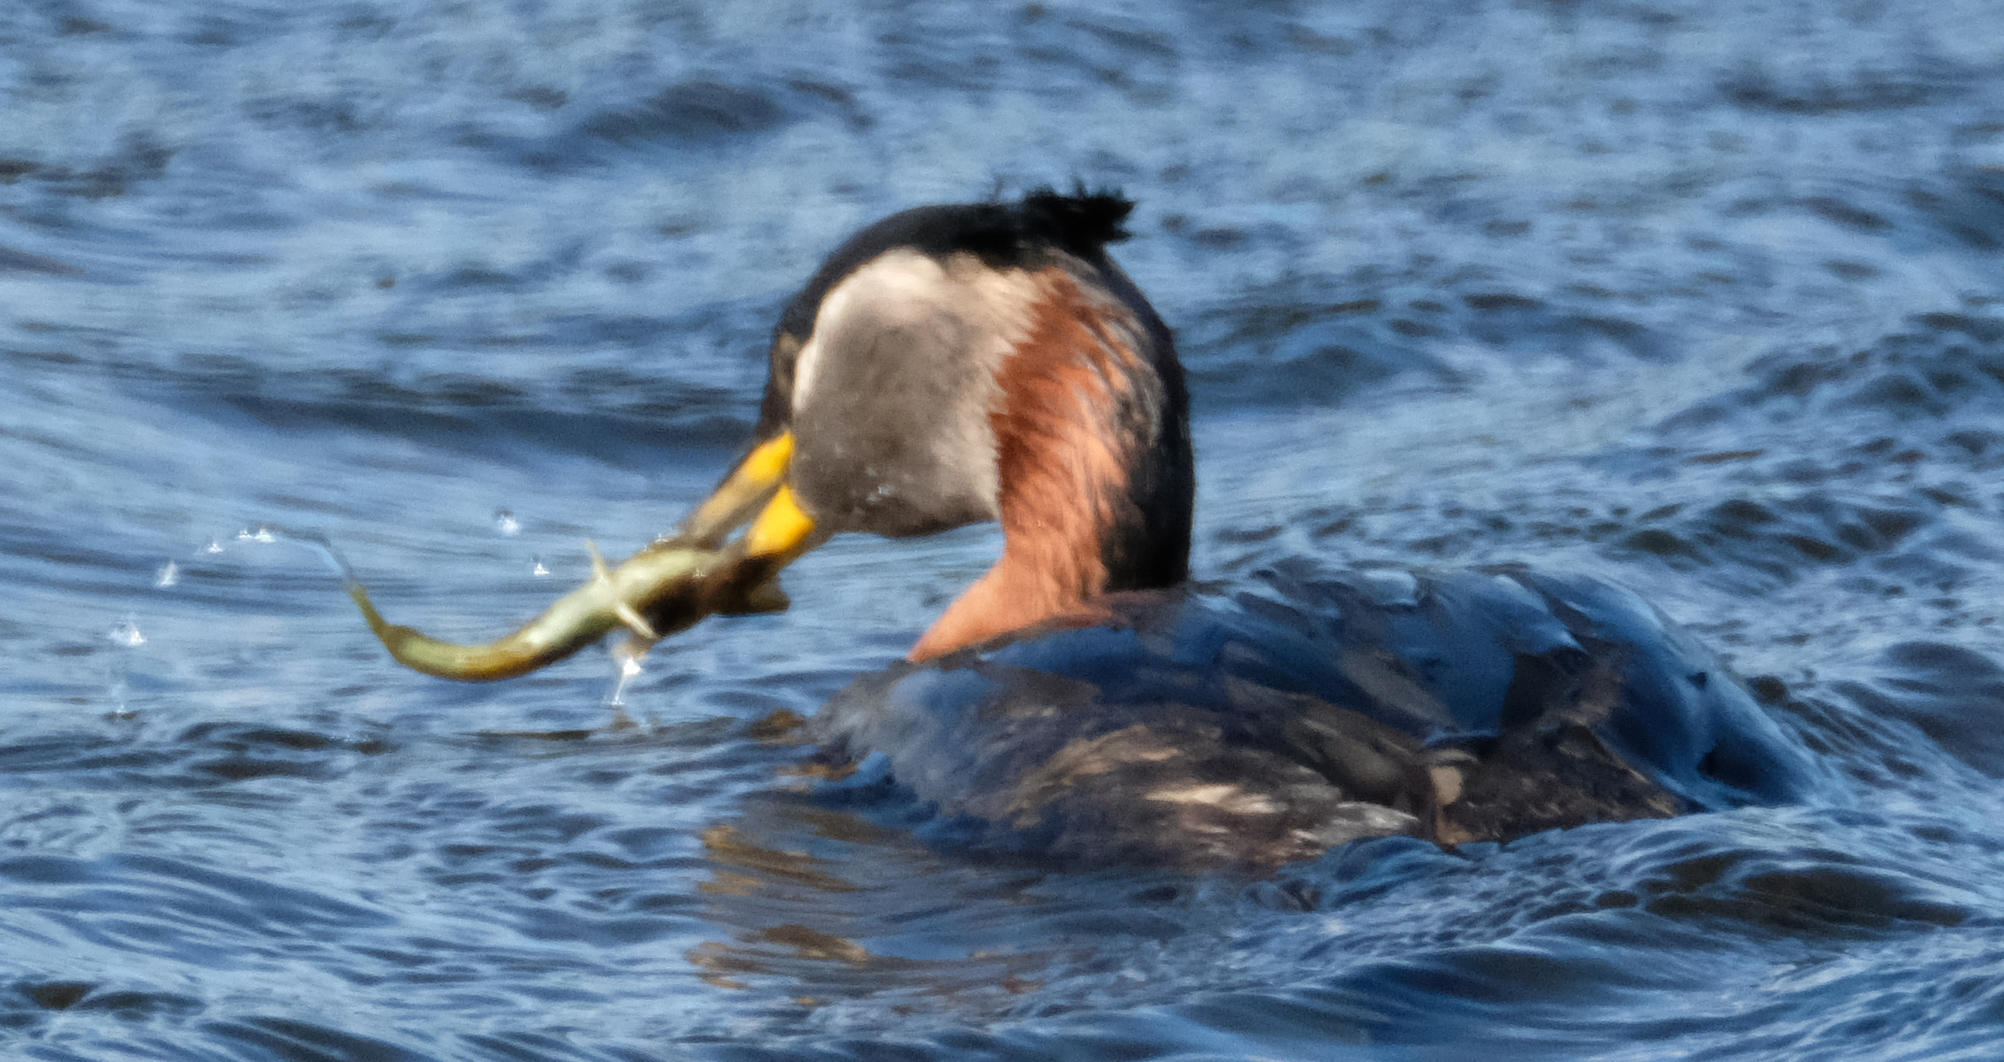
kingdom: Animalia
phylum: Chordata
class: Aves
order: Podicipediformes
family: Podicipedidae
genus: Podiceps
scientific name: Podiceps grisegena
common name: Red-necked grebe
